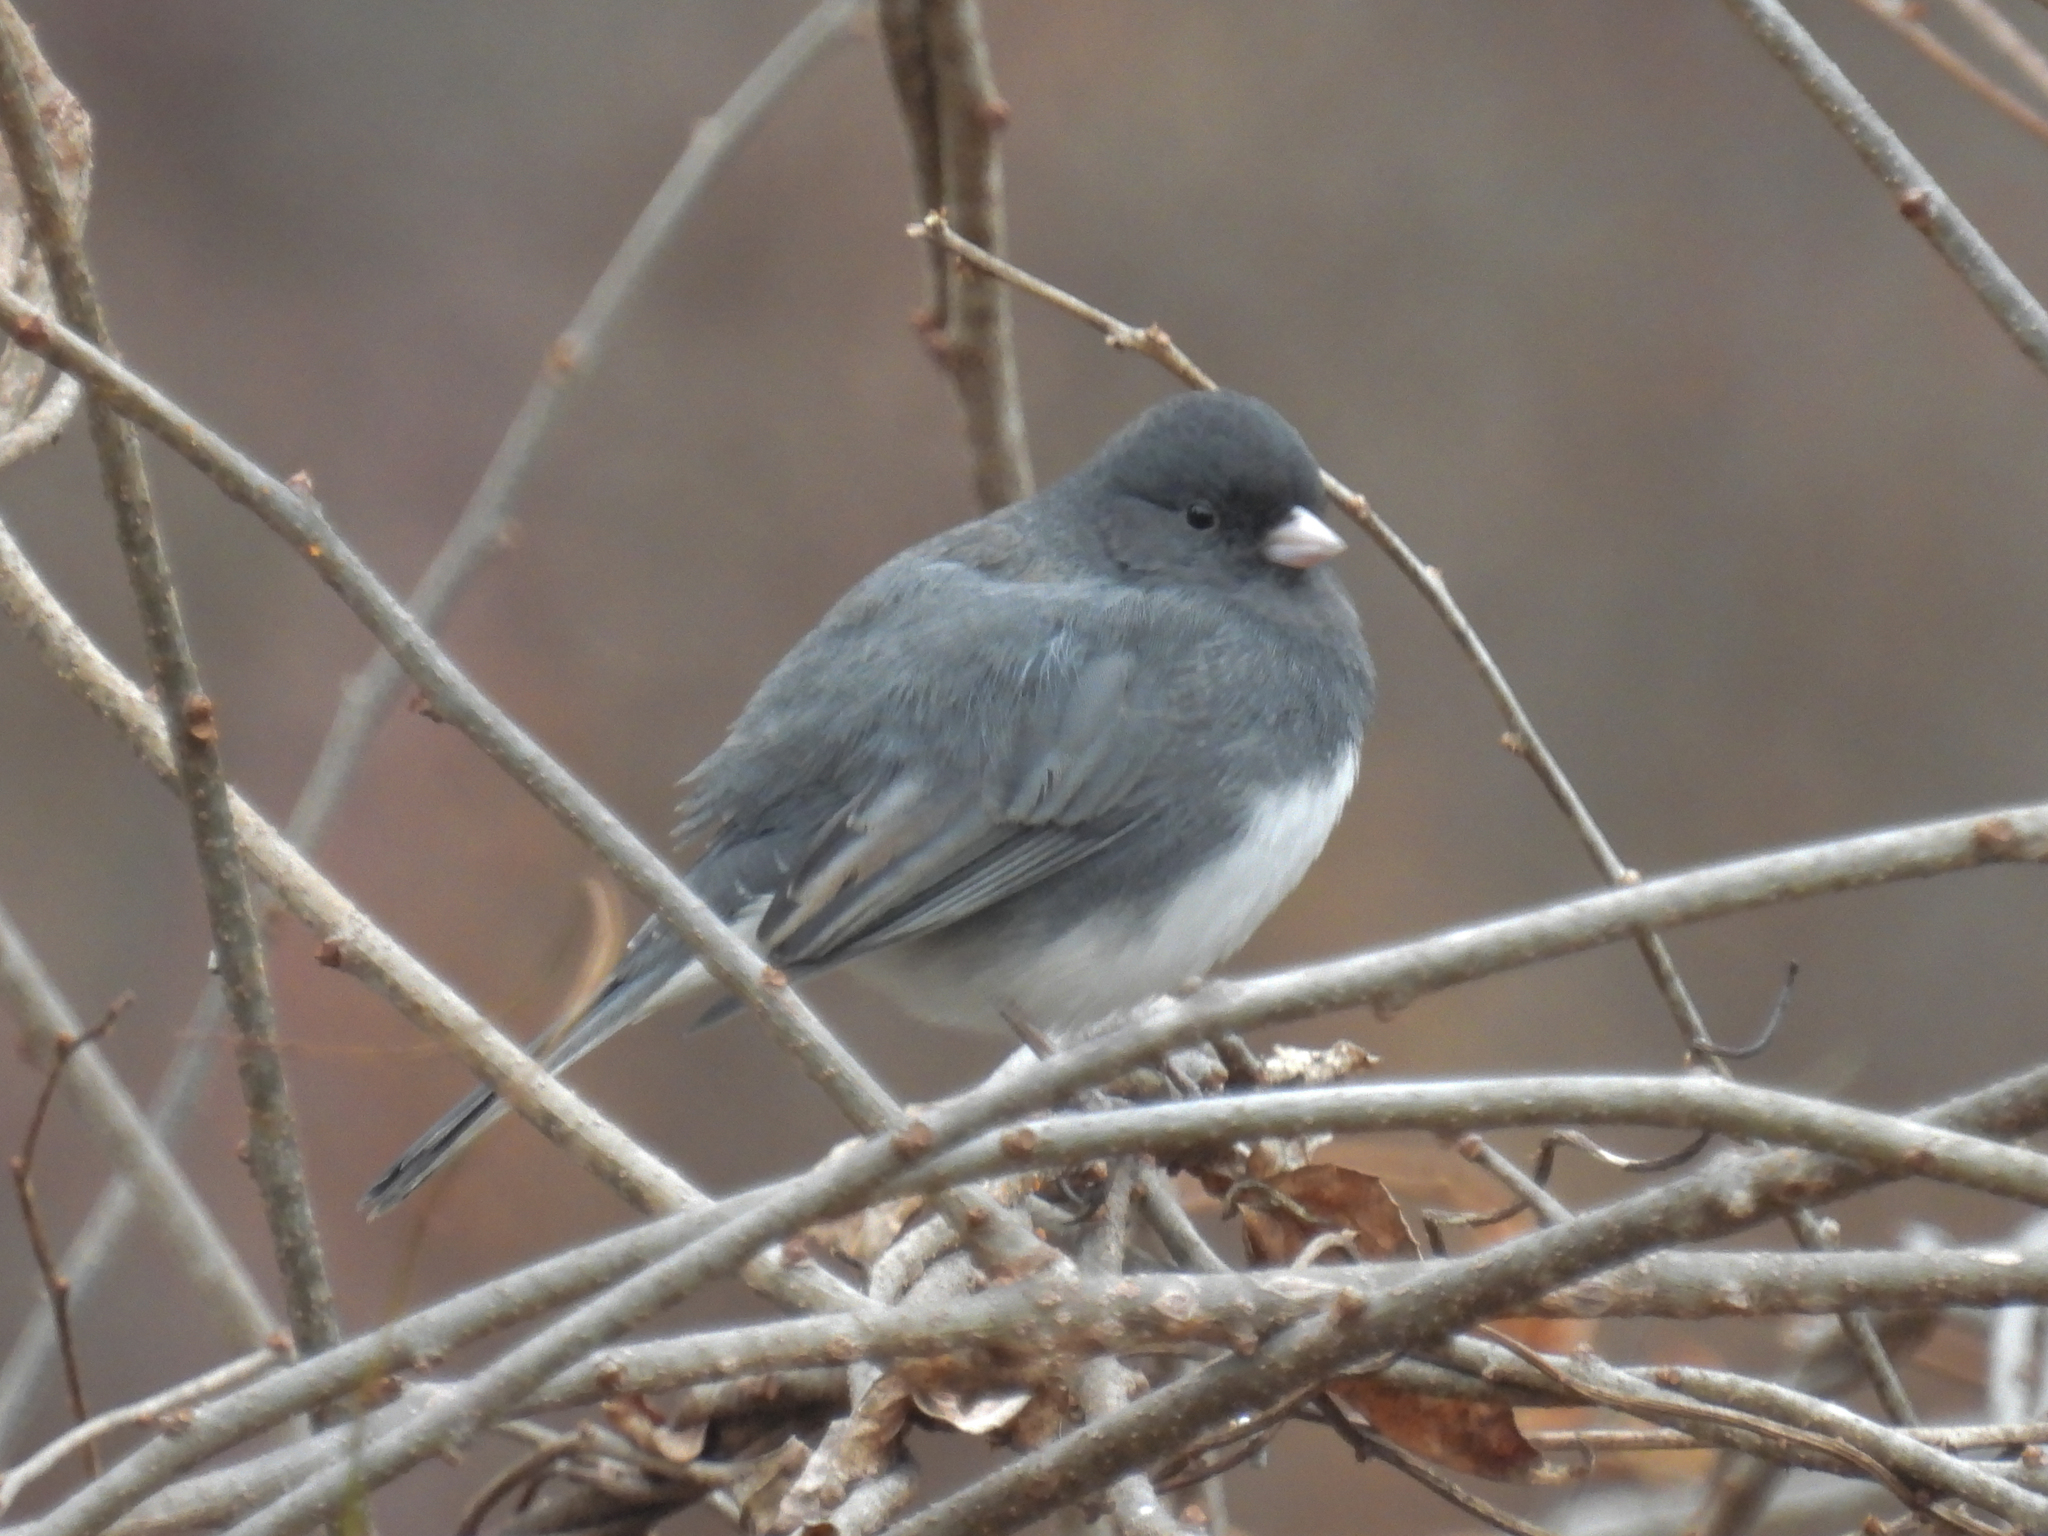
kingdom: Animalia
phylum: Chordata
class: Aves
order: Passeriformes
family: Passerellidae
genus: Junco
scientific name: Junco hyemalis
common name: Dark-eyed junco
